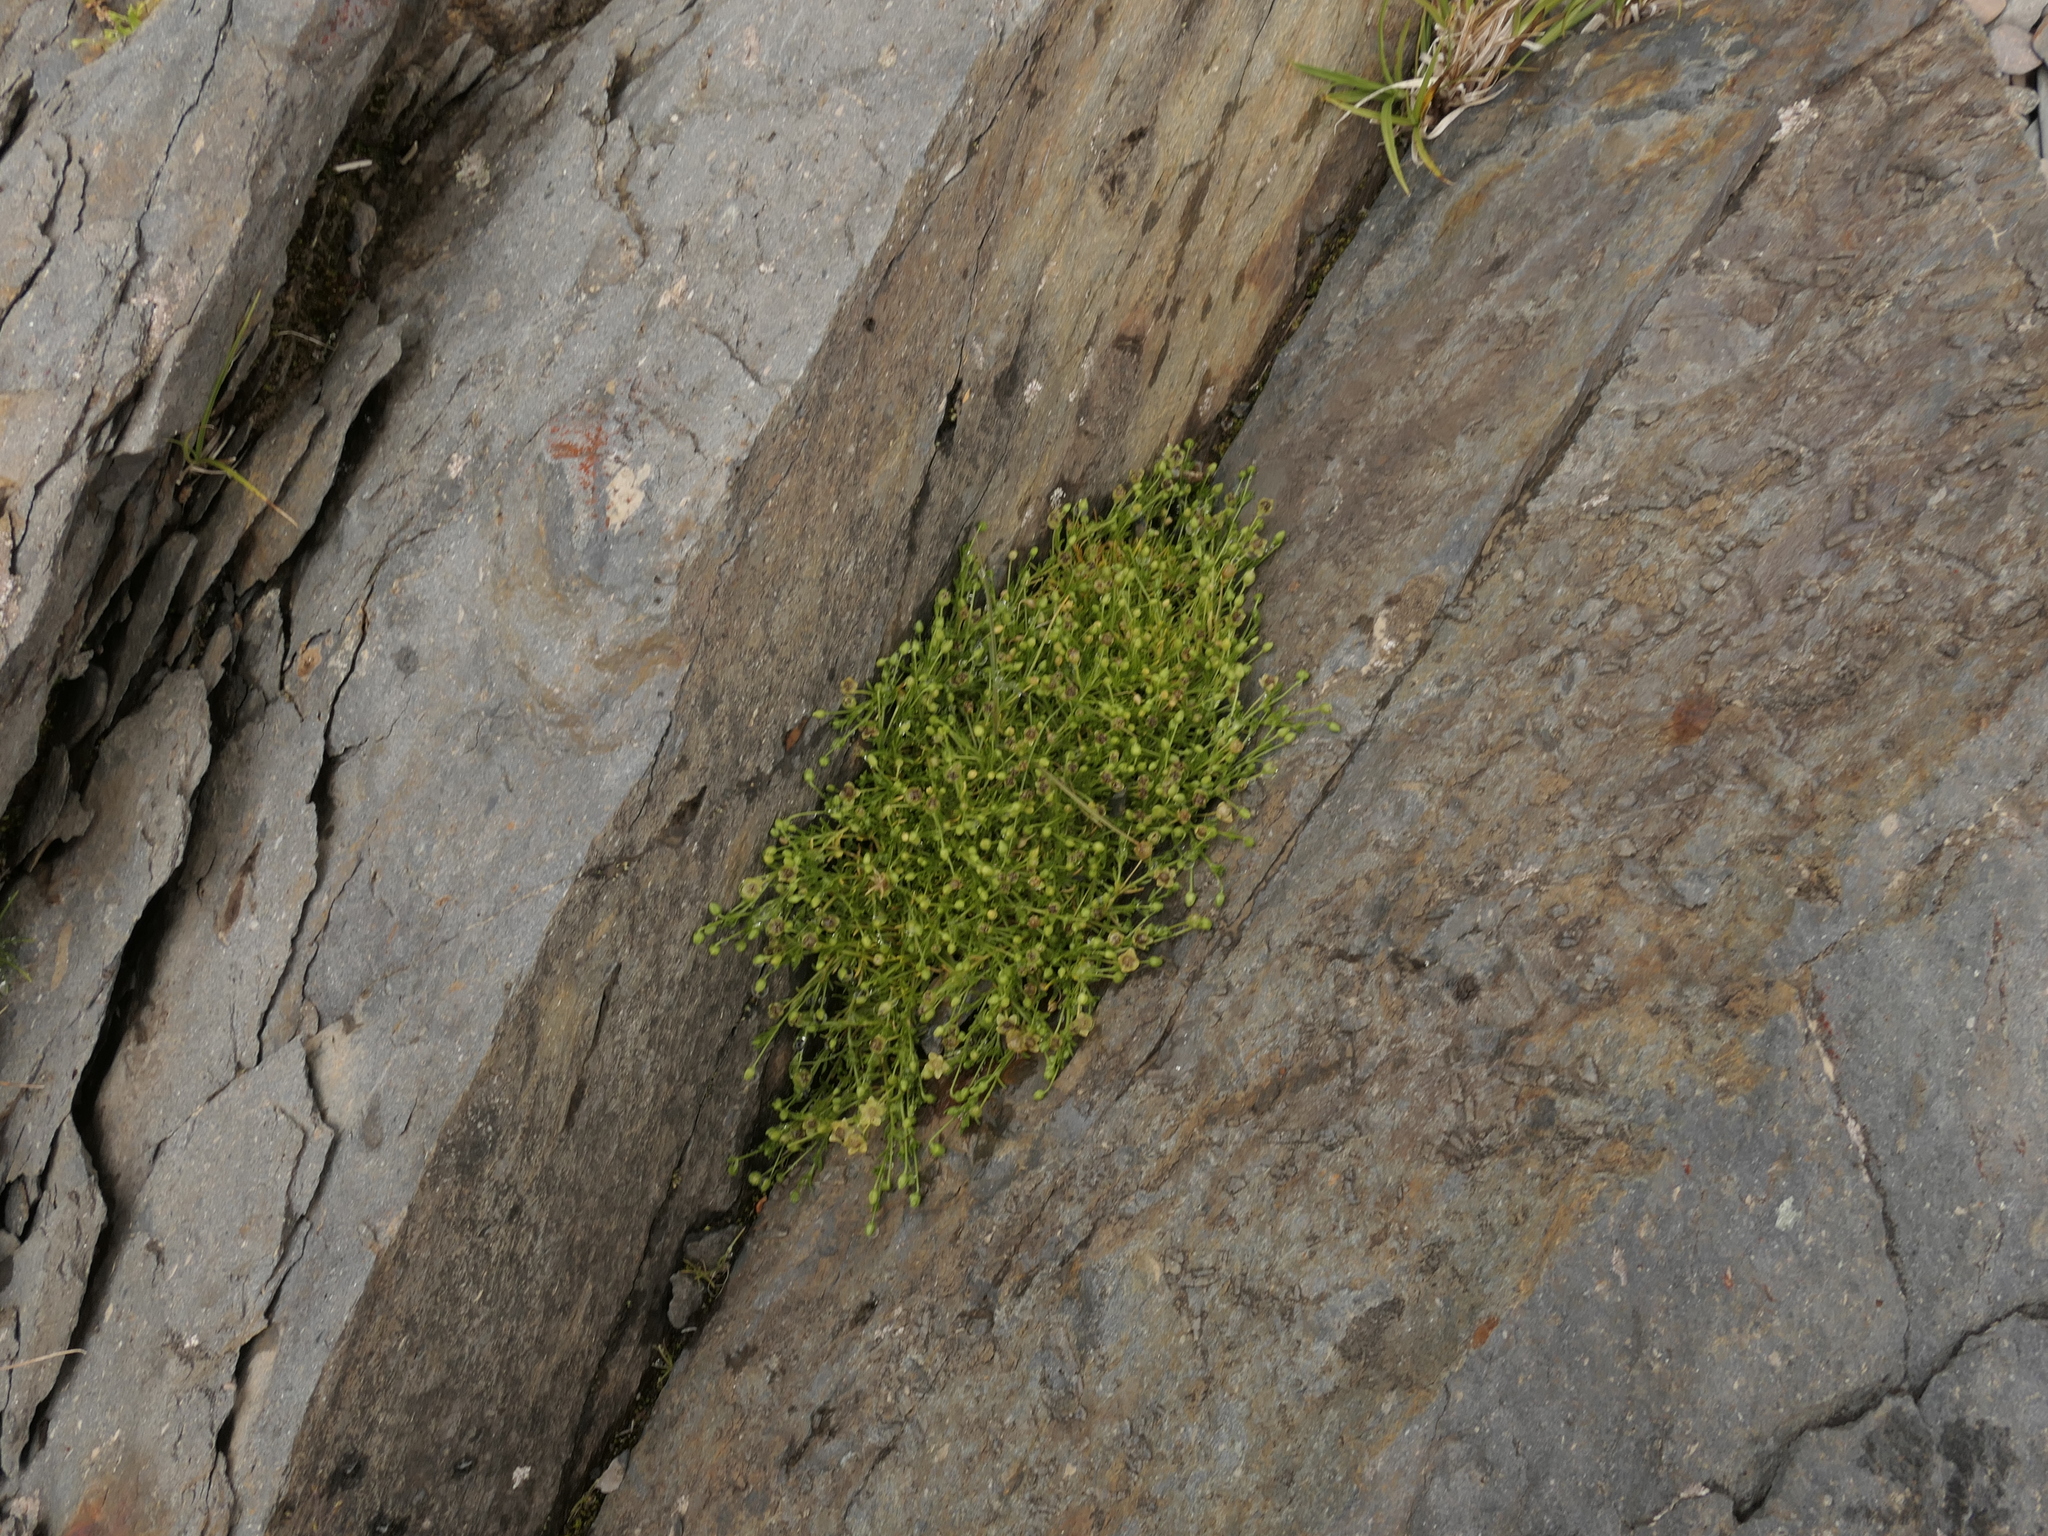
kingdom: Plantae
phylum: Tracheophyta
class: Magnoliopsida
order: Caryophyllales
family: Caryophyllaceae
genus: Sagina
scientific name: Sagina procumbens
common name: Procumbent pearlwort
